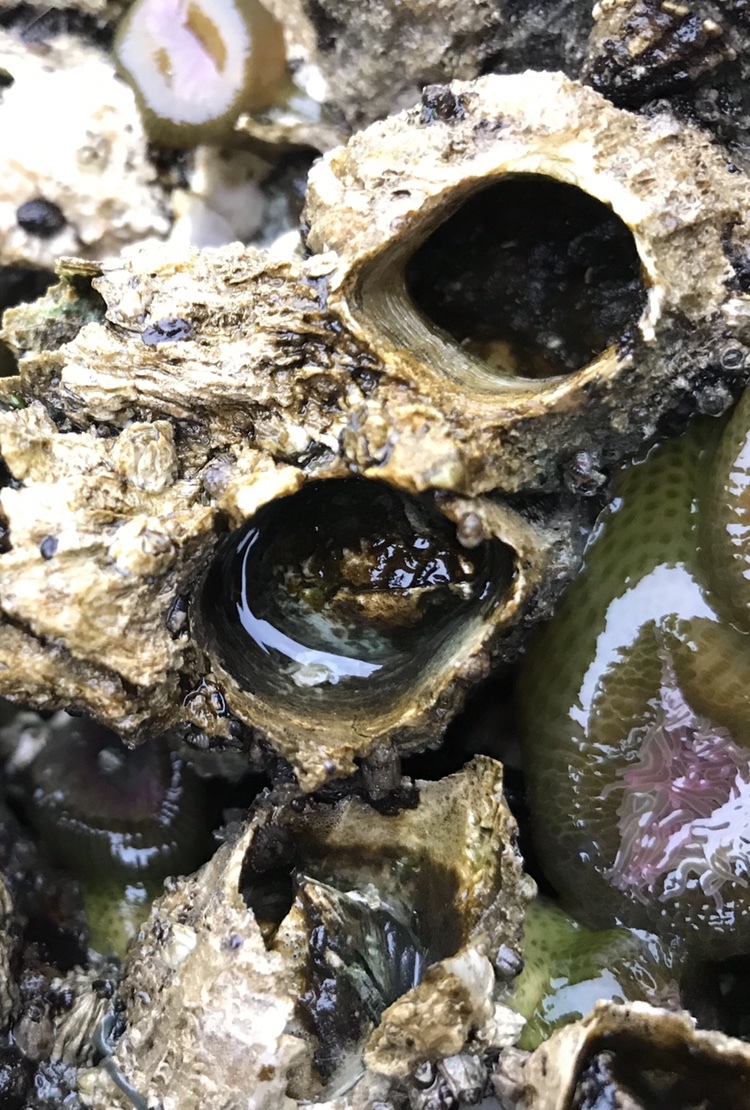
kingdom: Animalia
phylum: Arthropoda
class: Maxillopoda
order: Sessilia
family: Archaeobalanidae
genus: Semibalanus
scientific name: Semibalanus cariosus
